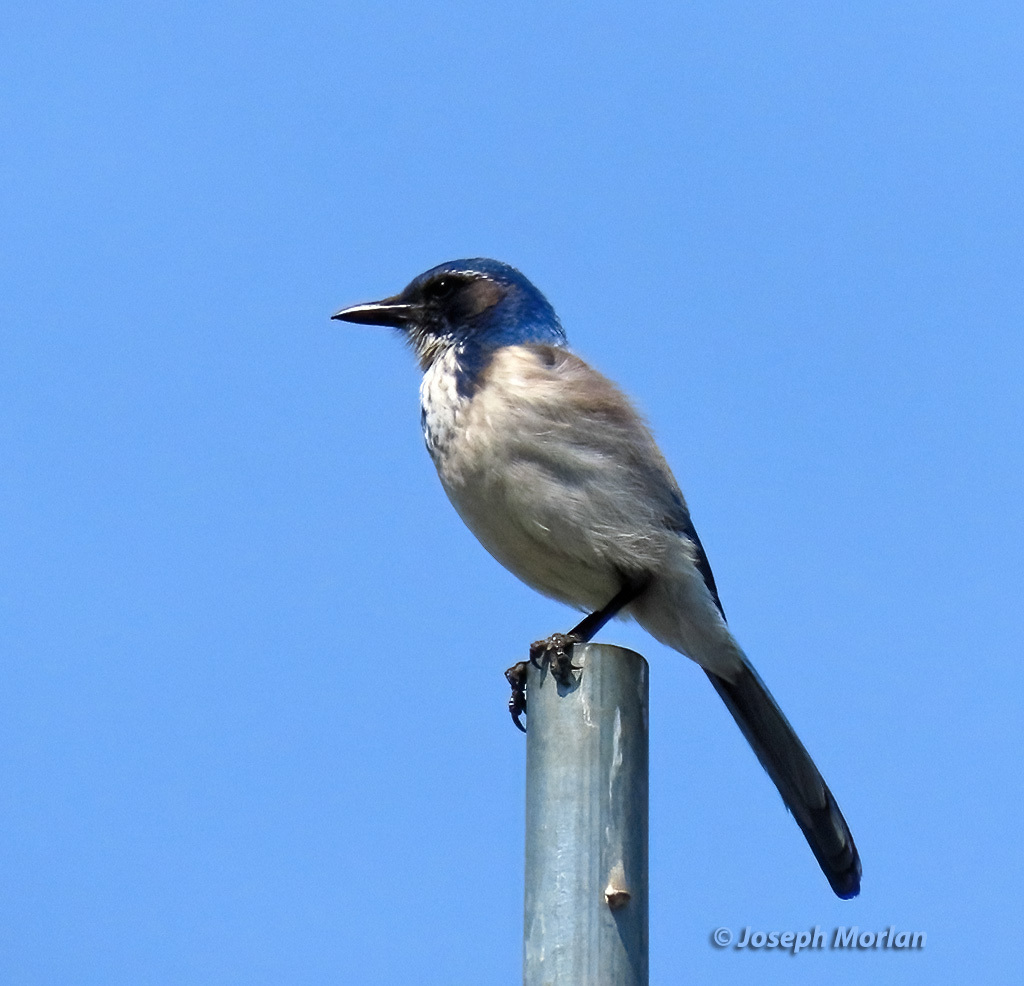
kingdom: Animalia
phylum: Chordata
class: Aves
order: Passeriformes
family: Corvidae
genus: Aphelocoma
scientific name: Aphelocoma californica
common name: California scrub-jay
